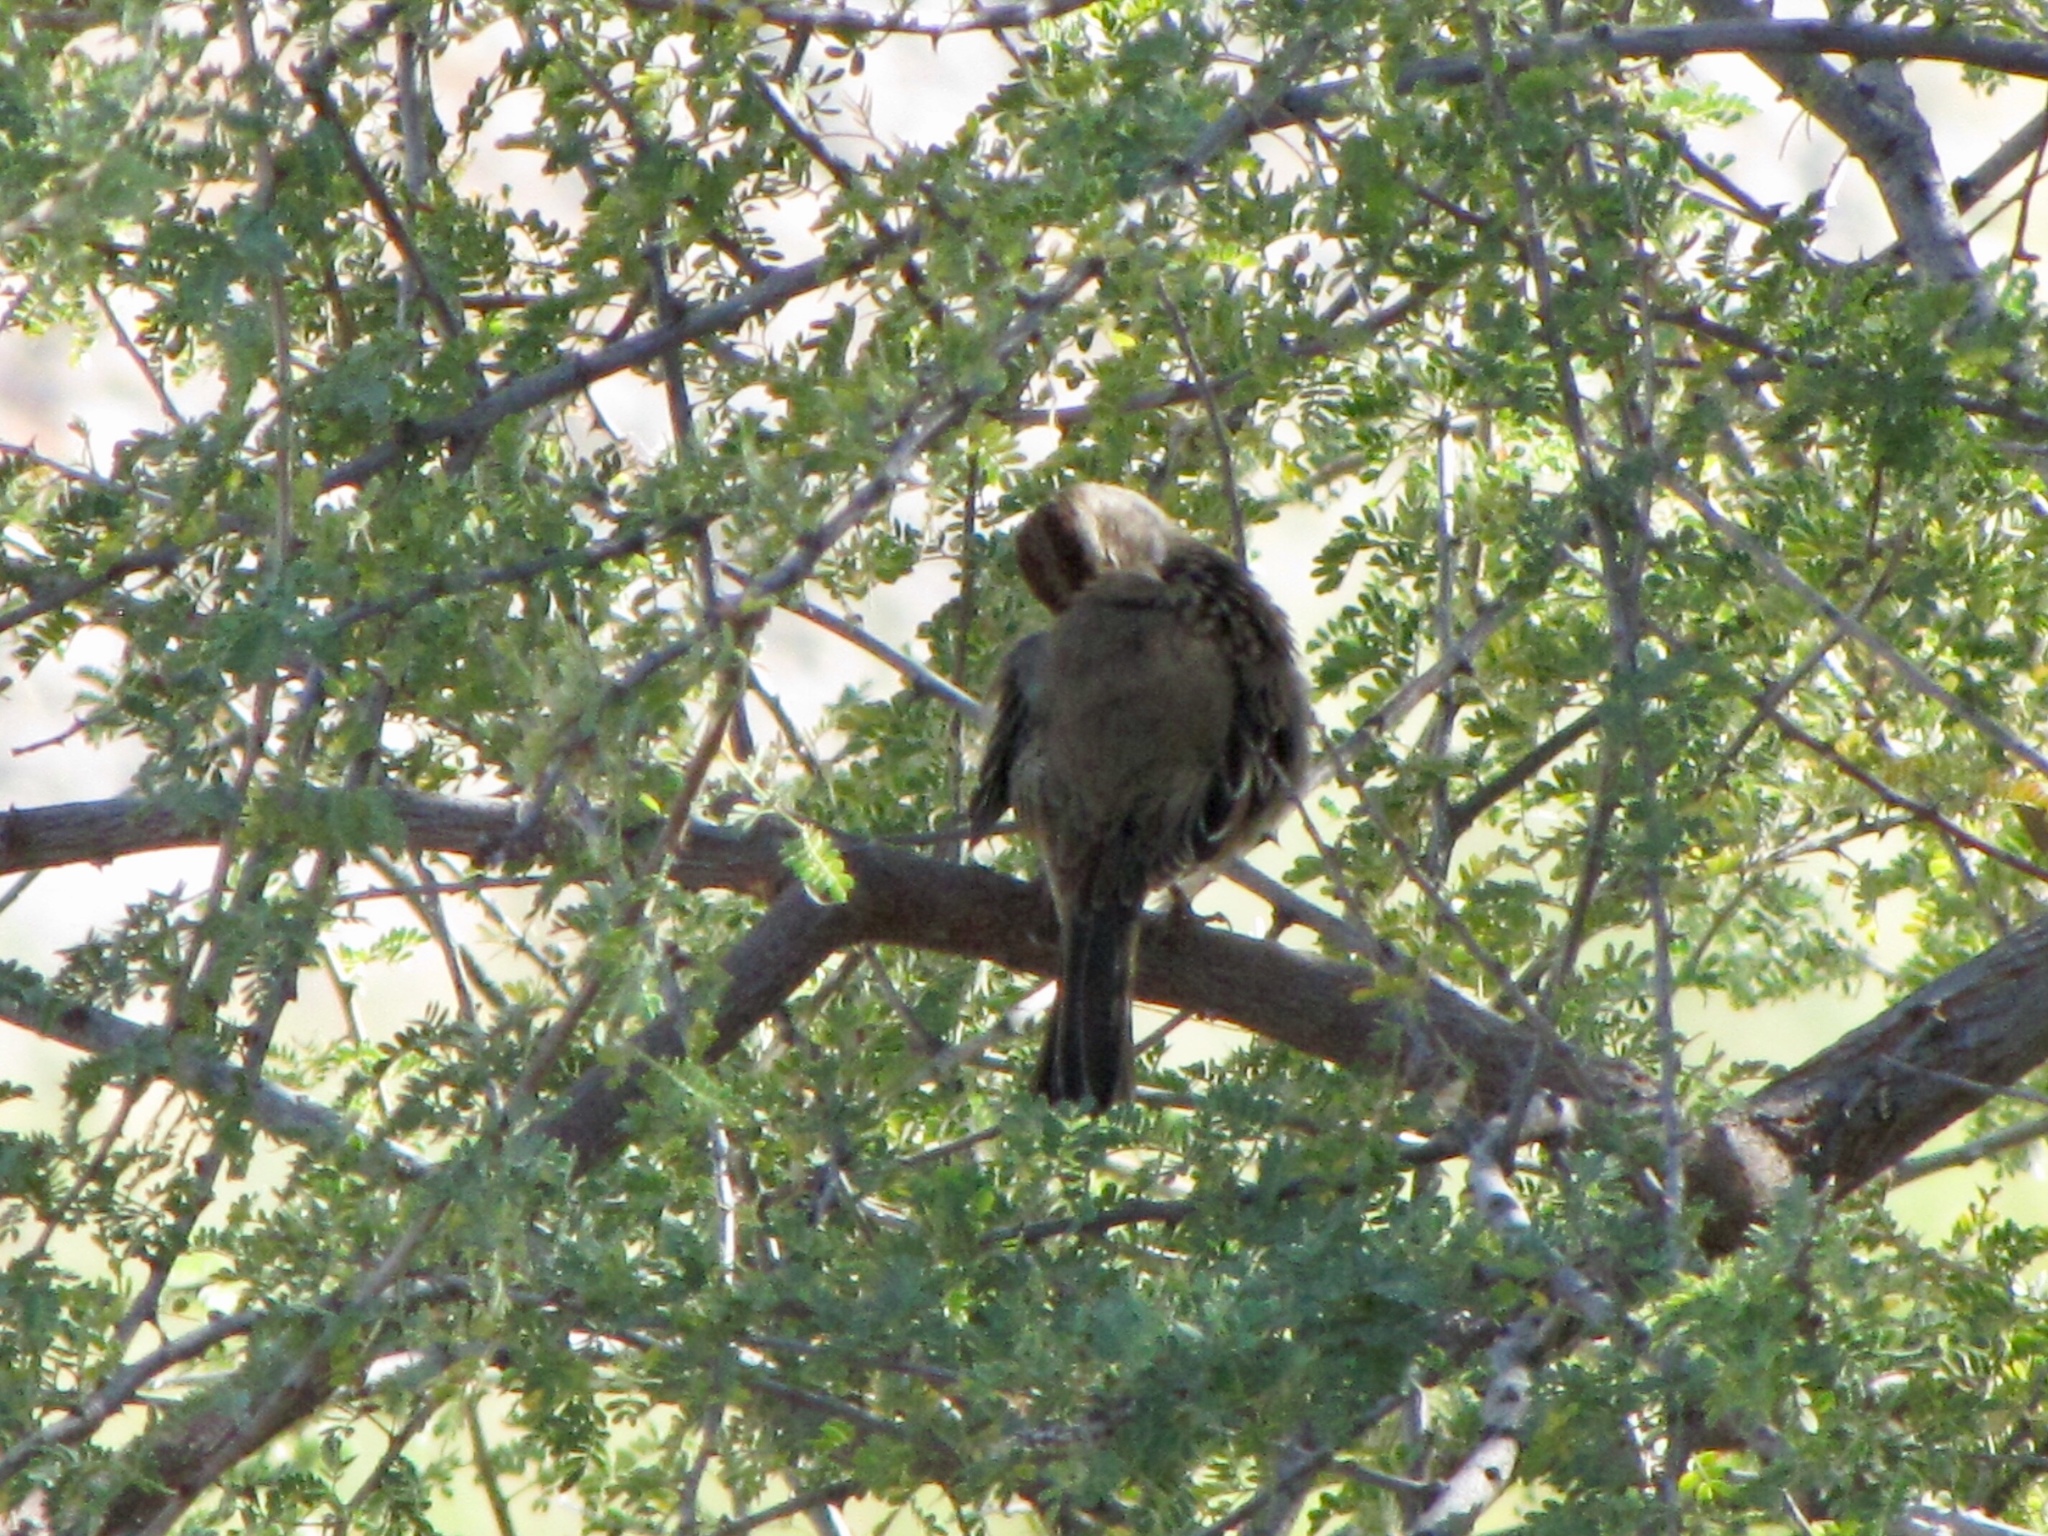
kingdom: Animalia
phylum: Chordata
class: Aves
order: Passeriformes
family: Passerellidae
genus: Zonotrichia
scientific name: Zonotrichia leucophrys
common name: White-crowned sparrow
